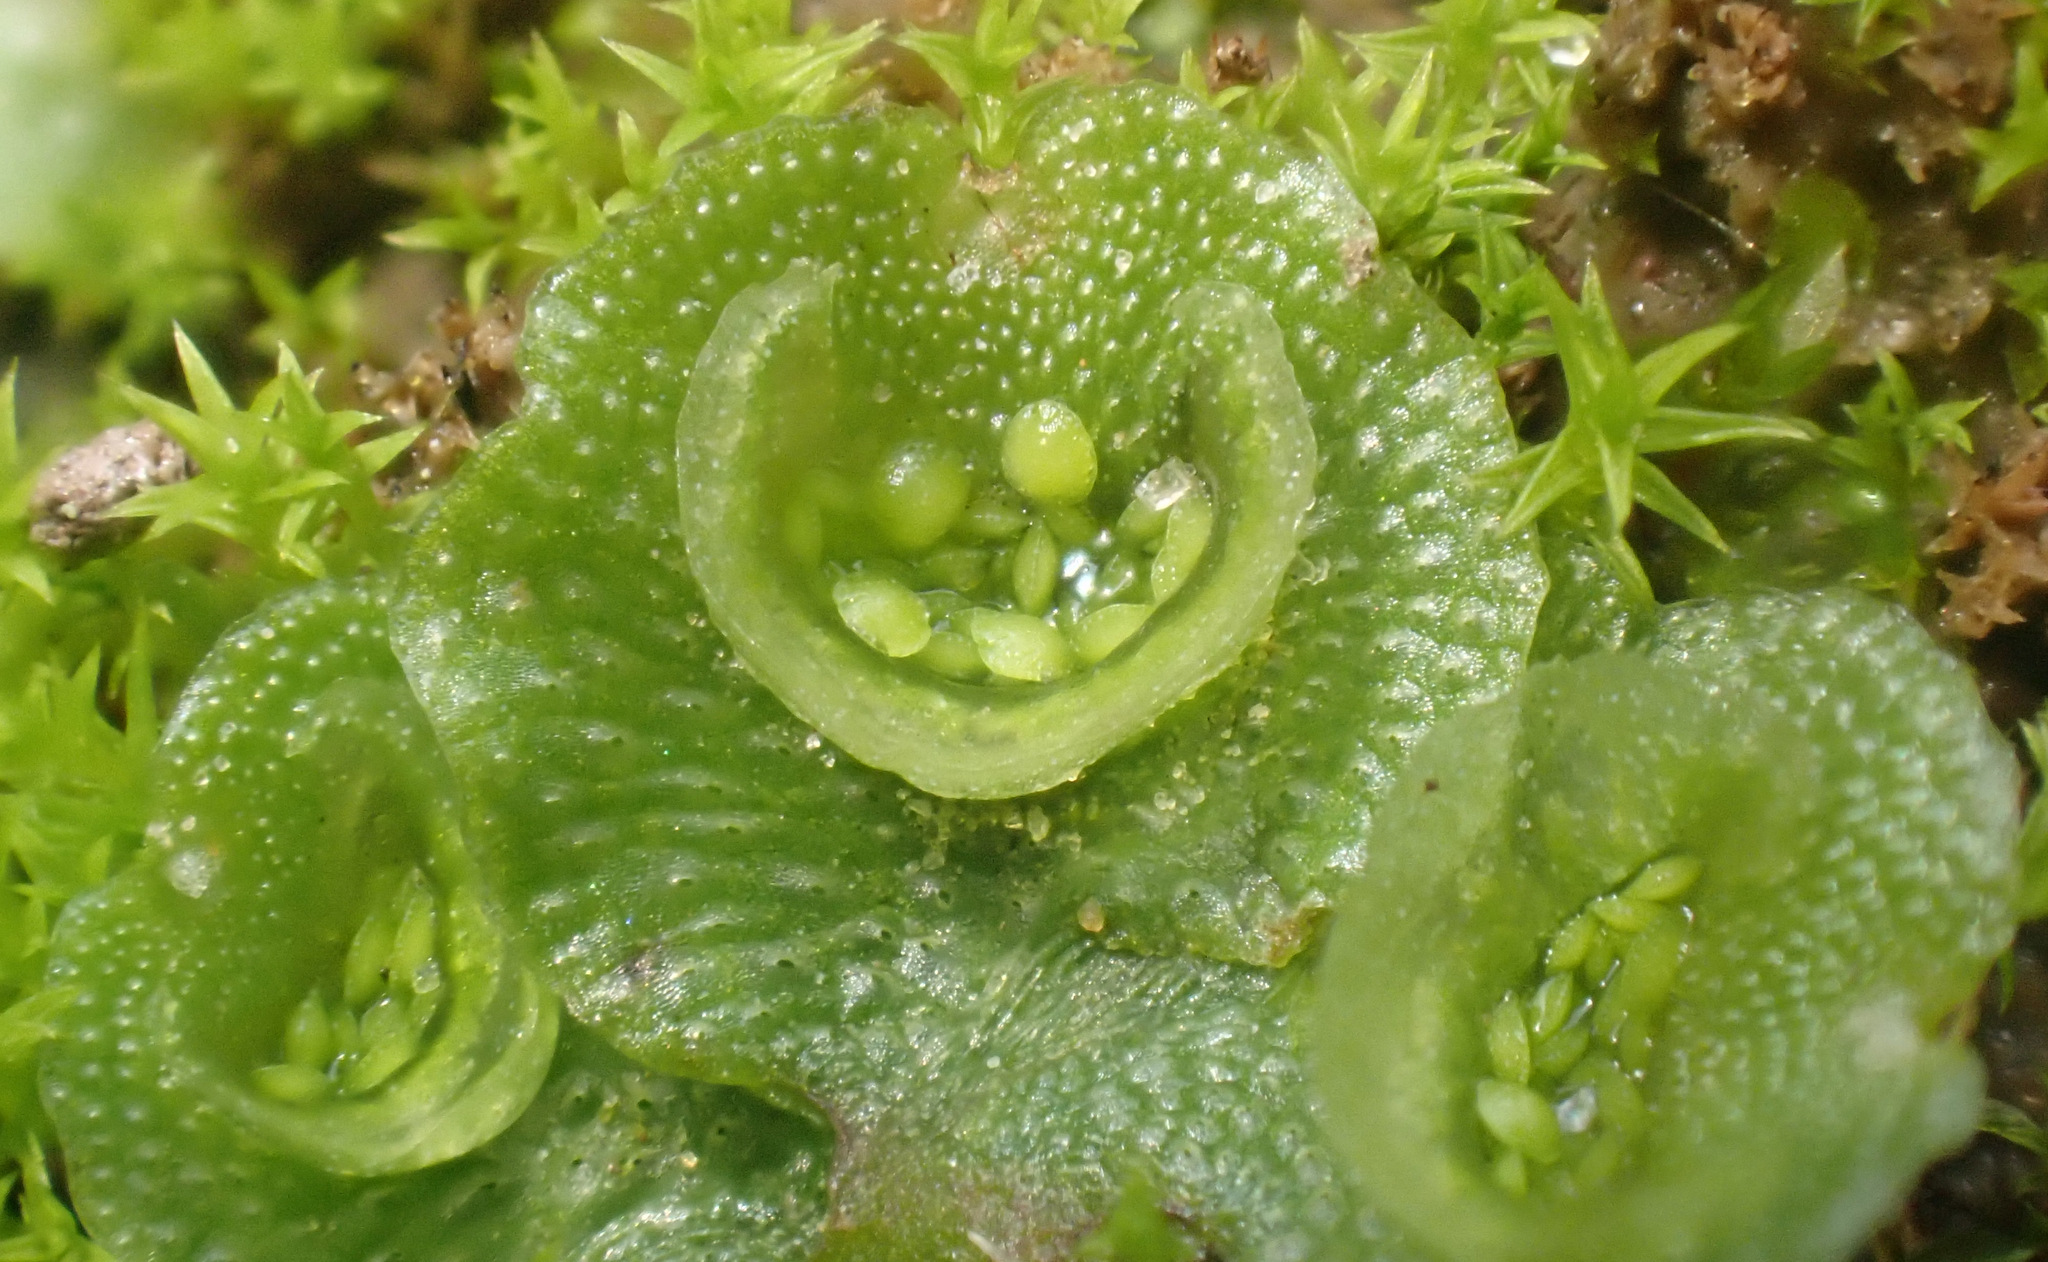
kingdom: Plantae
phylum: Marchantiophyta
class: Marchantiopsida
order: Lunulariales
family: Lunulariaceae
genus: Lunularia
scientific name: Lunularia cruciata
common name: Crescent-cup liverwort
